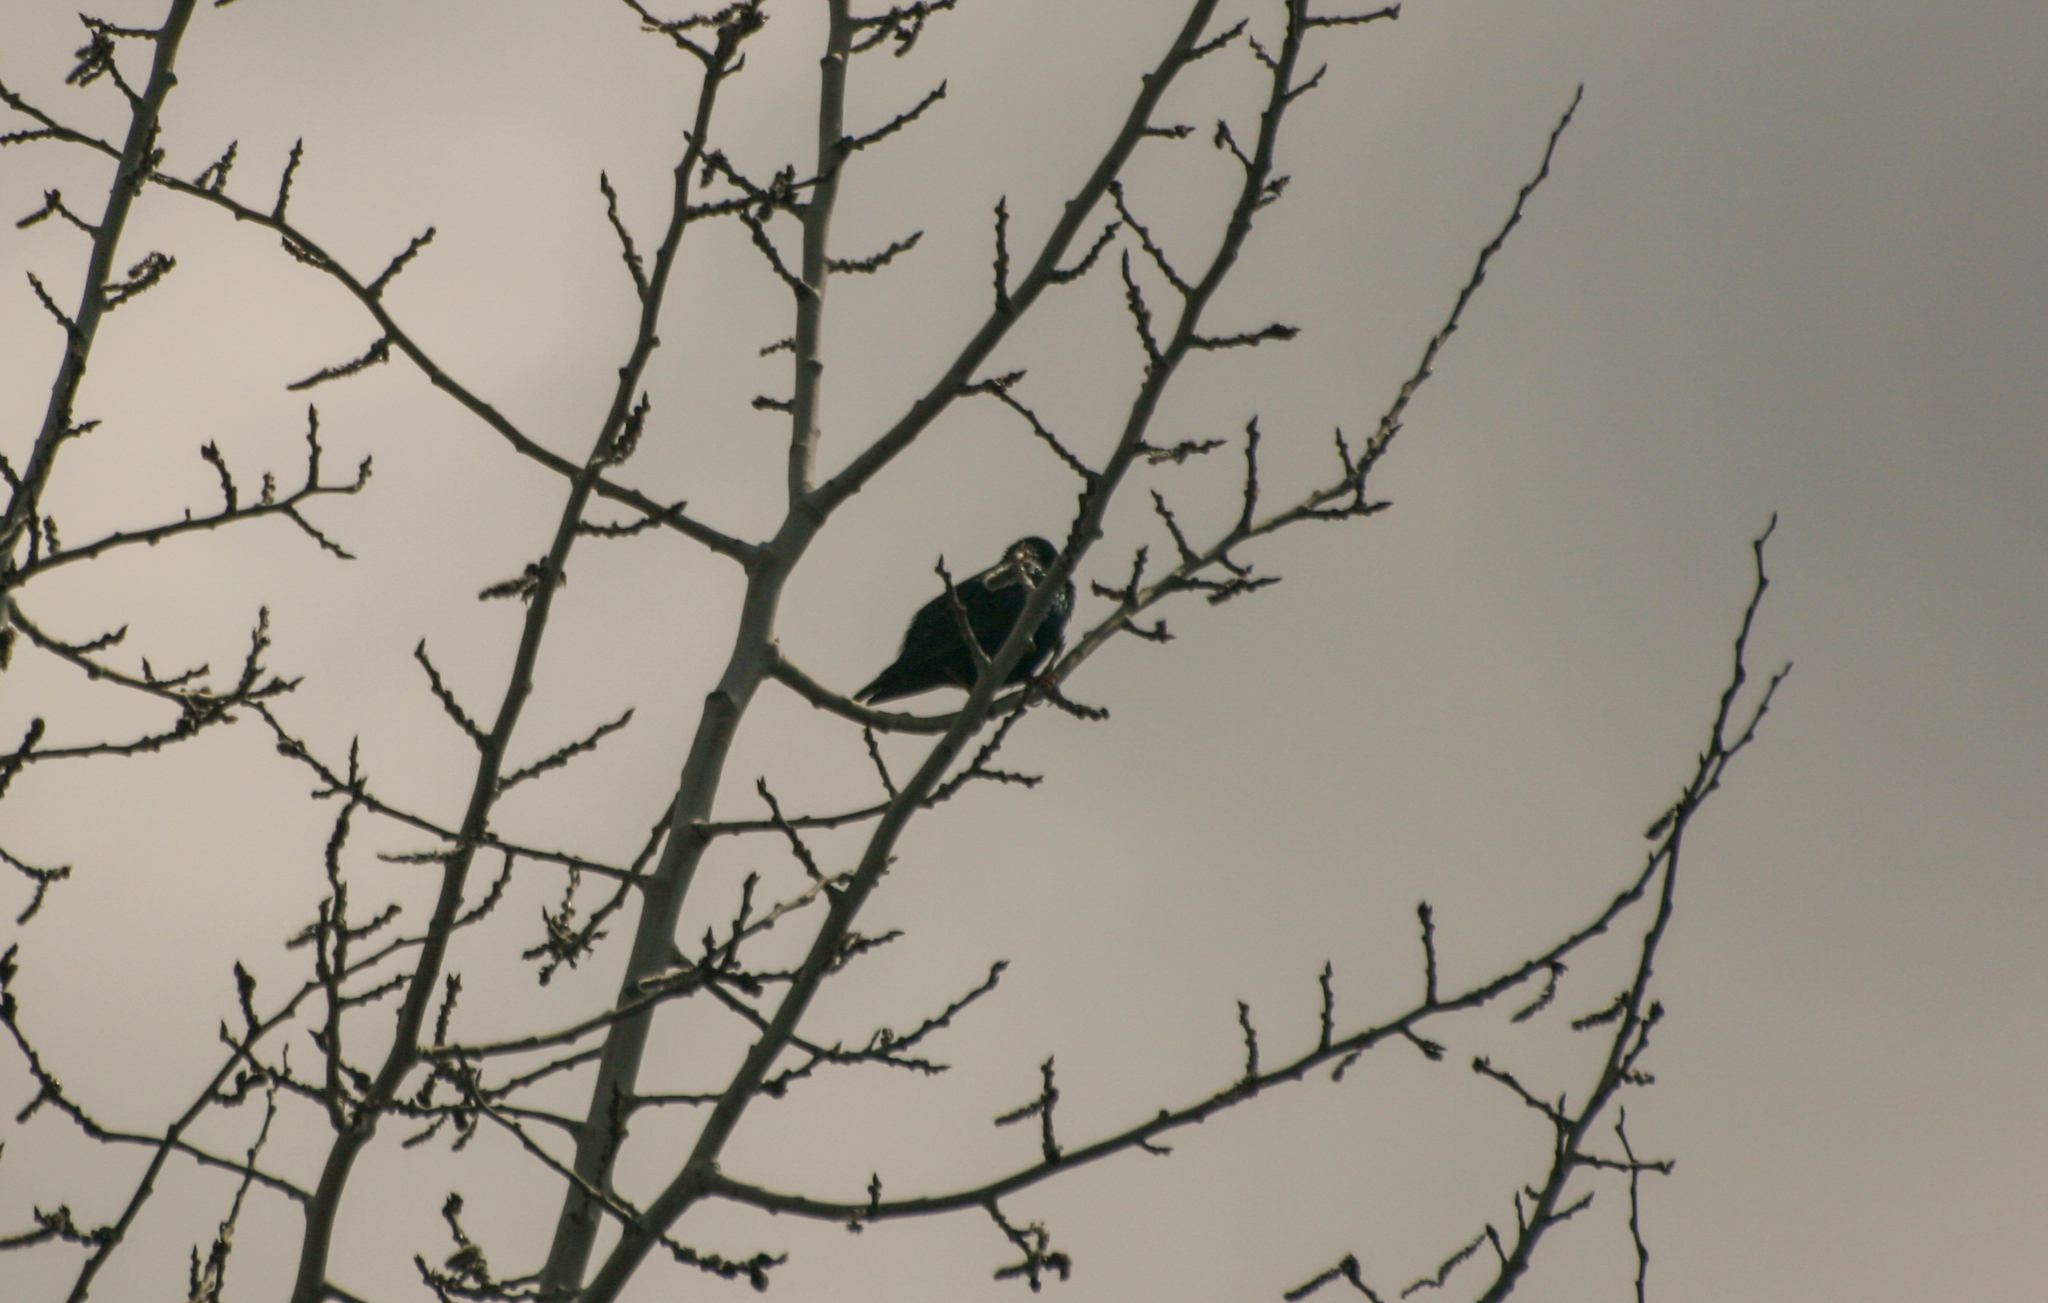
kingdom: Animalia
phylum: Chordata
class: Aves
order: Passeriformes
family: Sturnidae
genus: Sturnus
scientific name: Sturnus vulgaris
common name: Common starling
